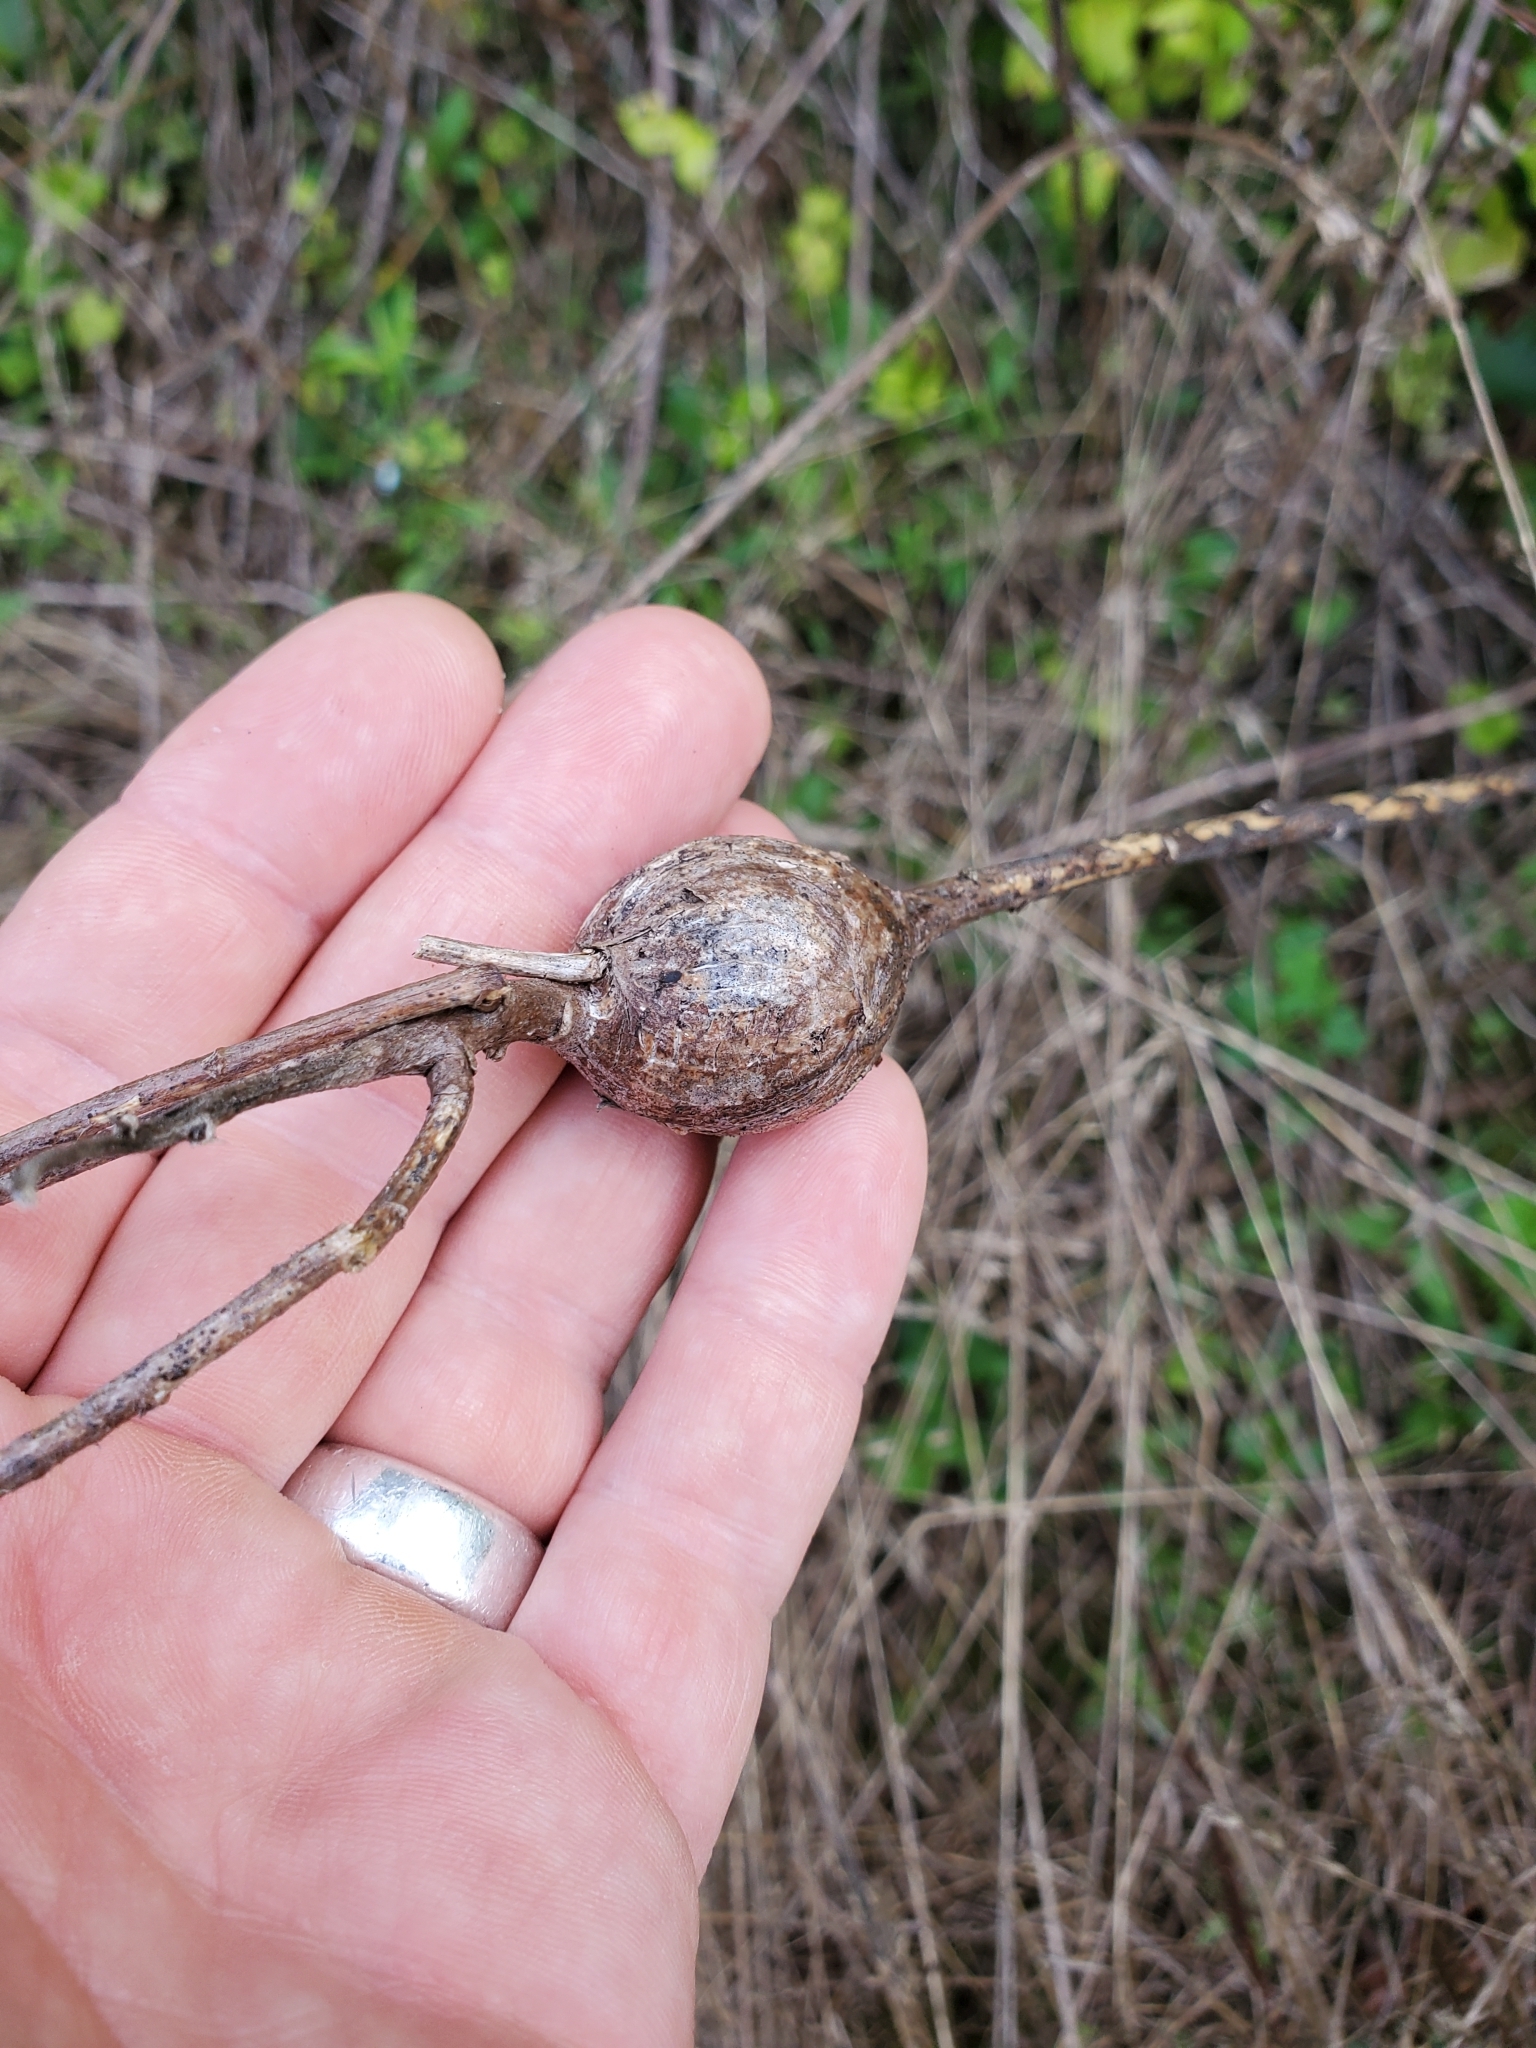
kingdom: Animalia
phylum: Arthropoda
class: Insecta
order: Diptera
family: Tephritidae
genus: Eurosta
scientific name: Eurosta solidaginis
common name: Goldenrod gall fly
